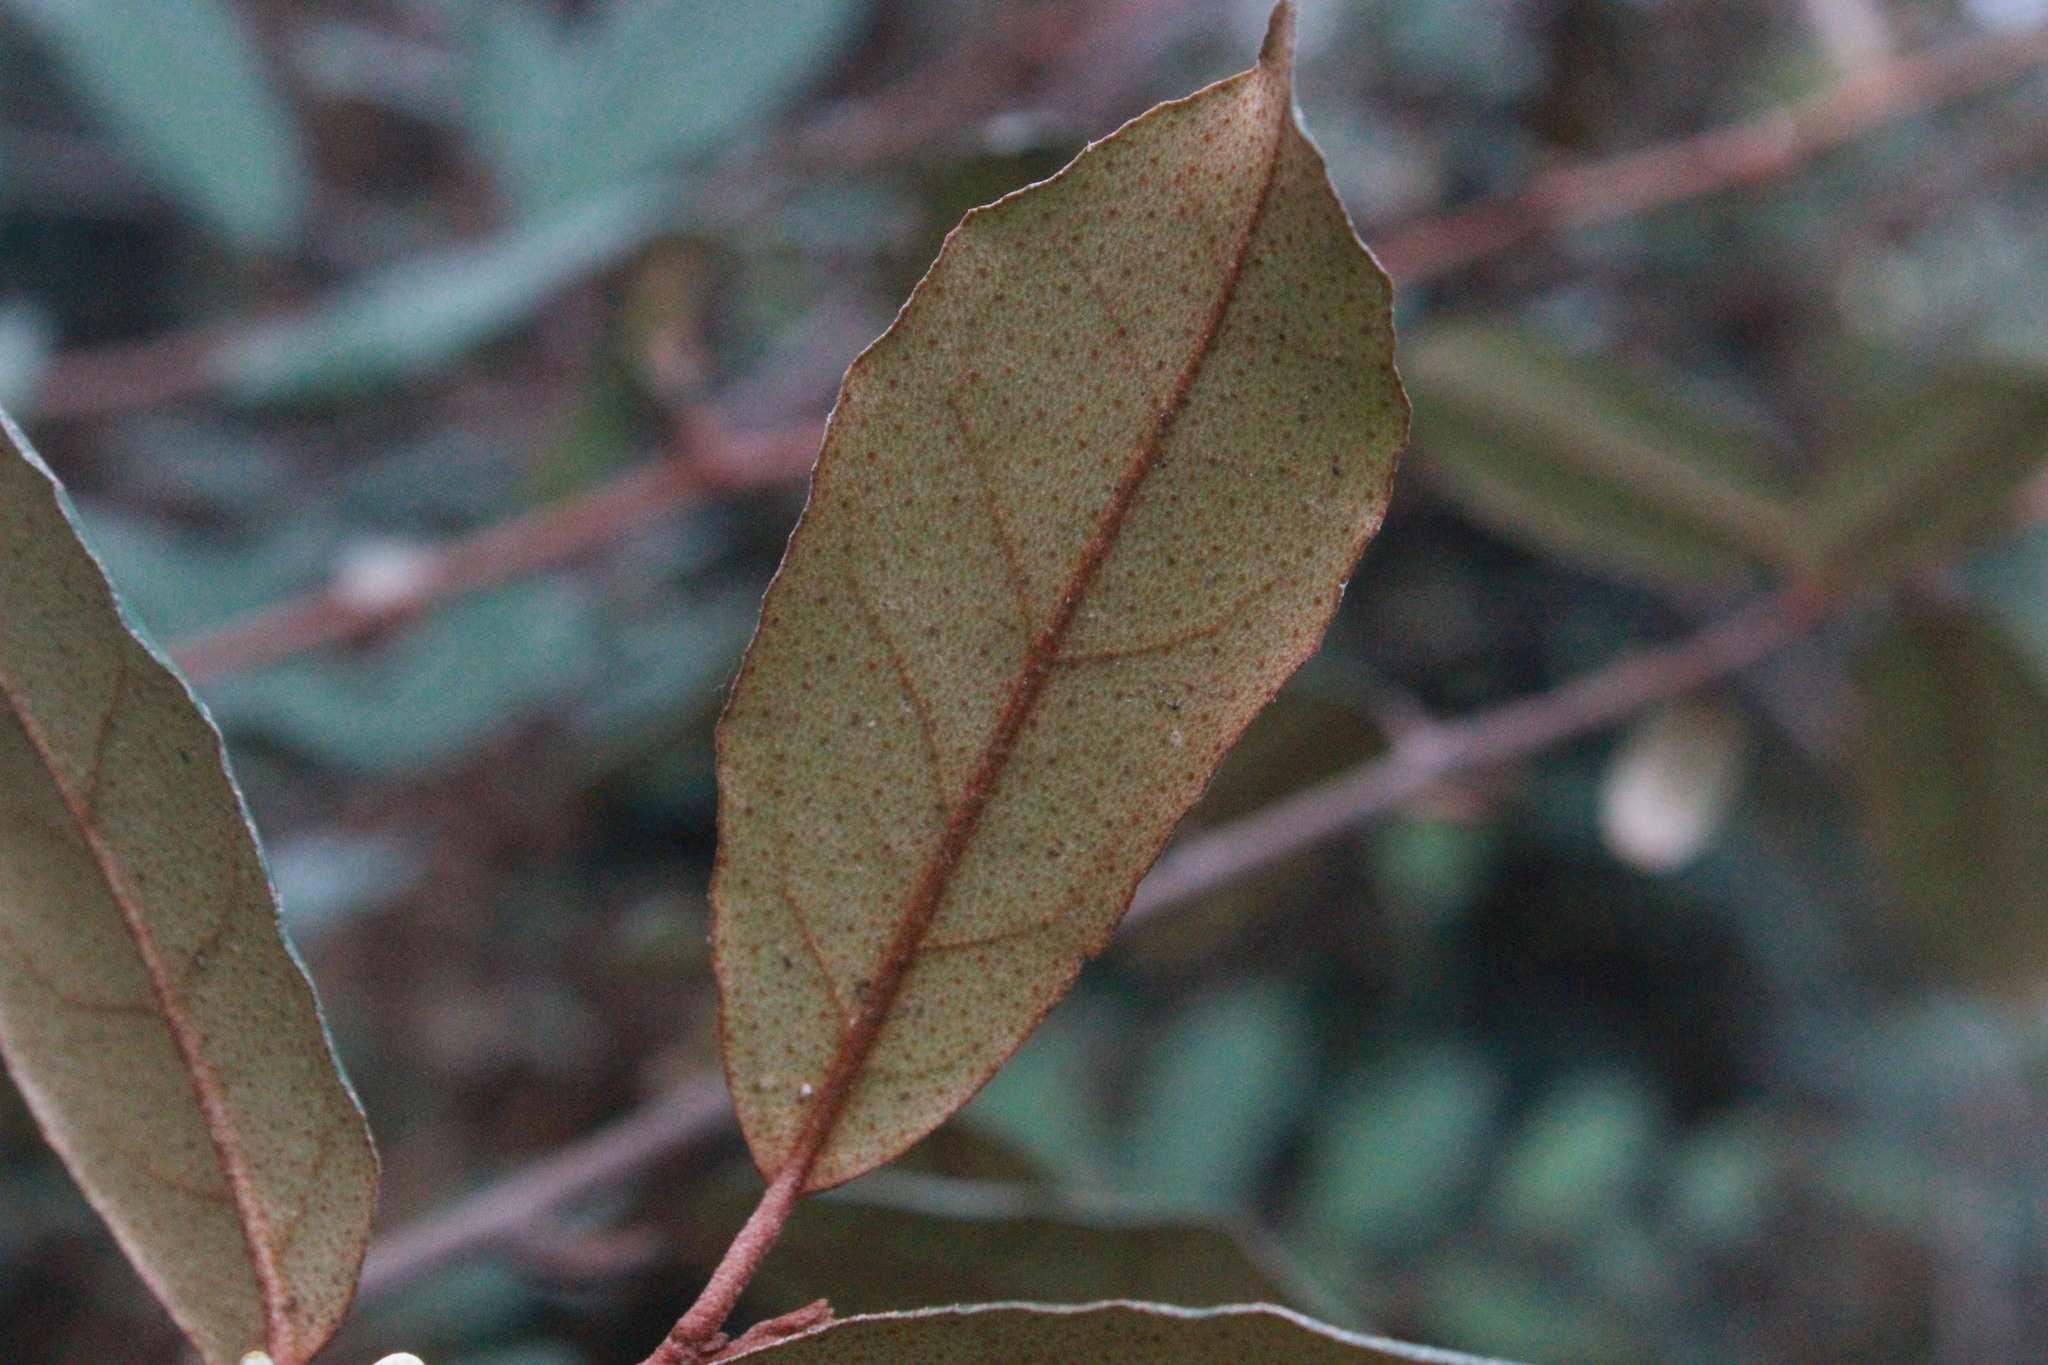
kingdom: Plantae
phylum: Tracheophyta
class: Magnoliopsida
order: Rosales
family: Elaeagnaceae
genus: Elaeagnus
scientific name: Elaeagnus pungens
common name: Spiny oleaster
